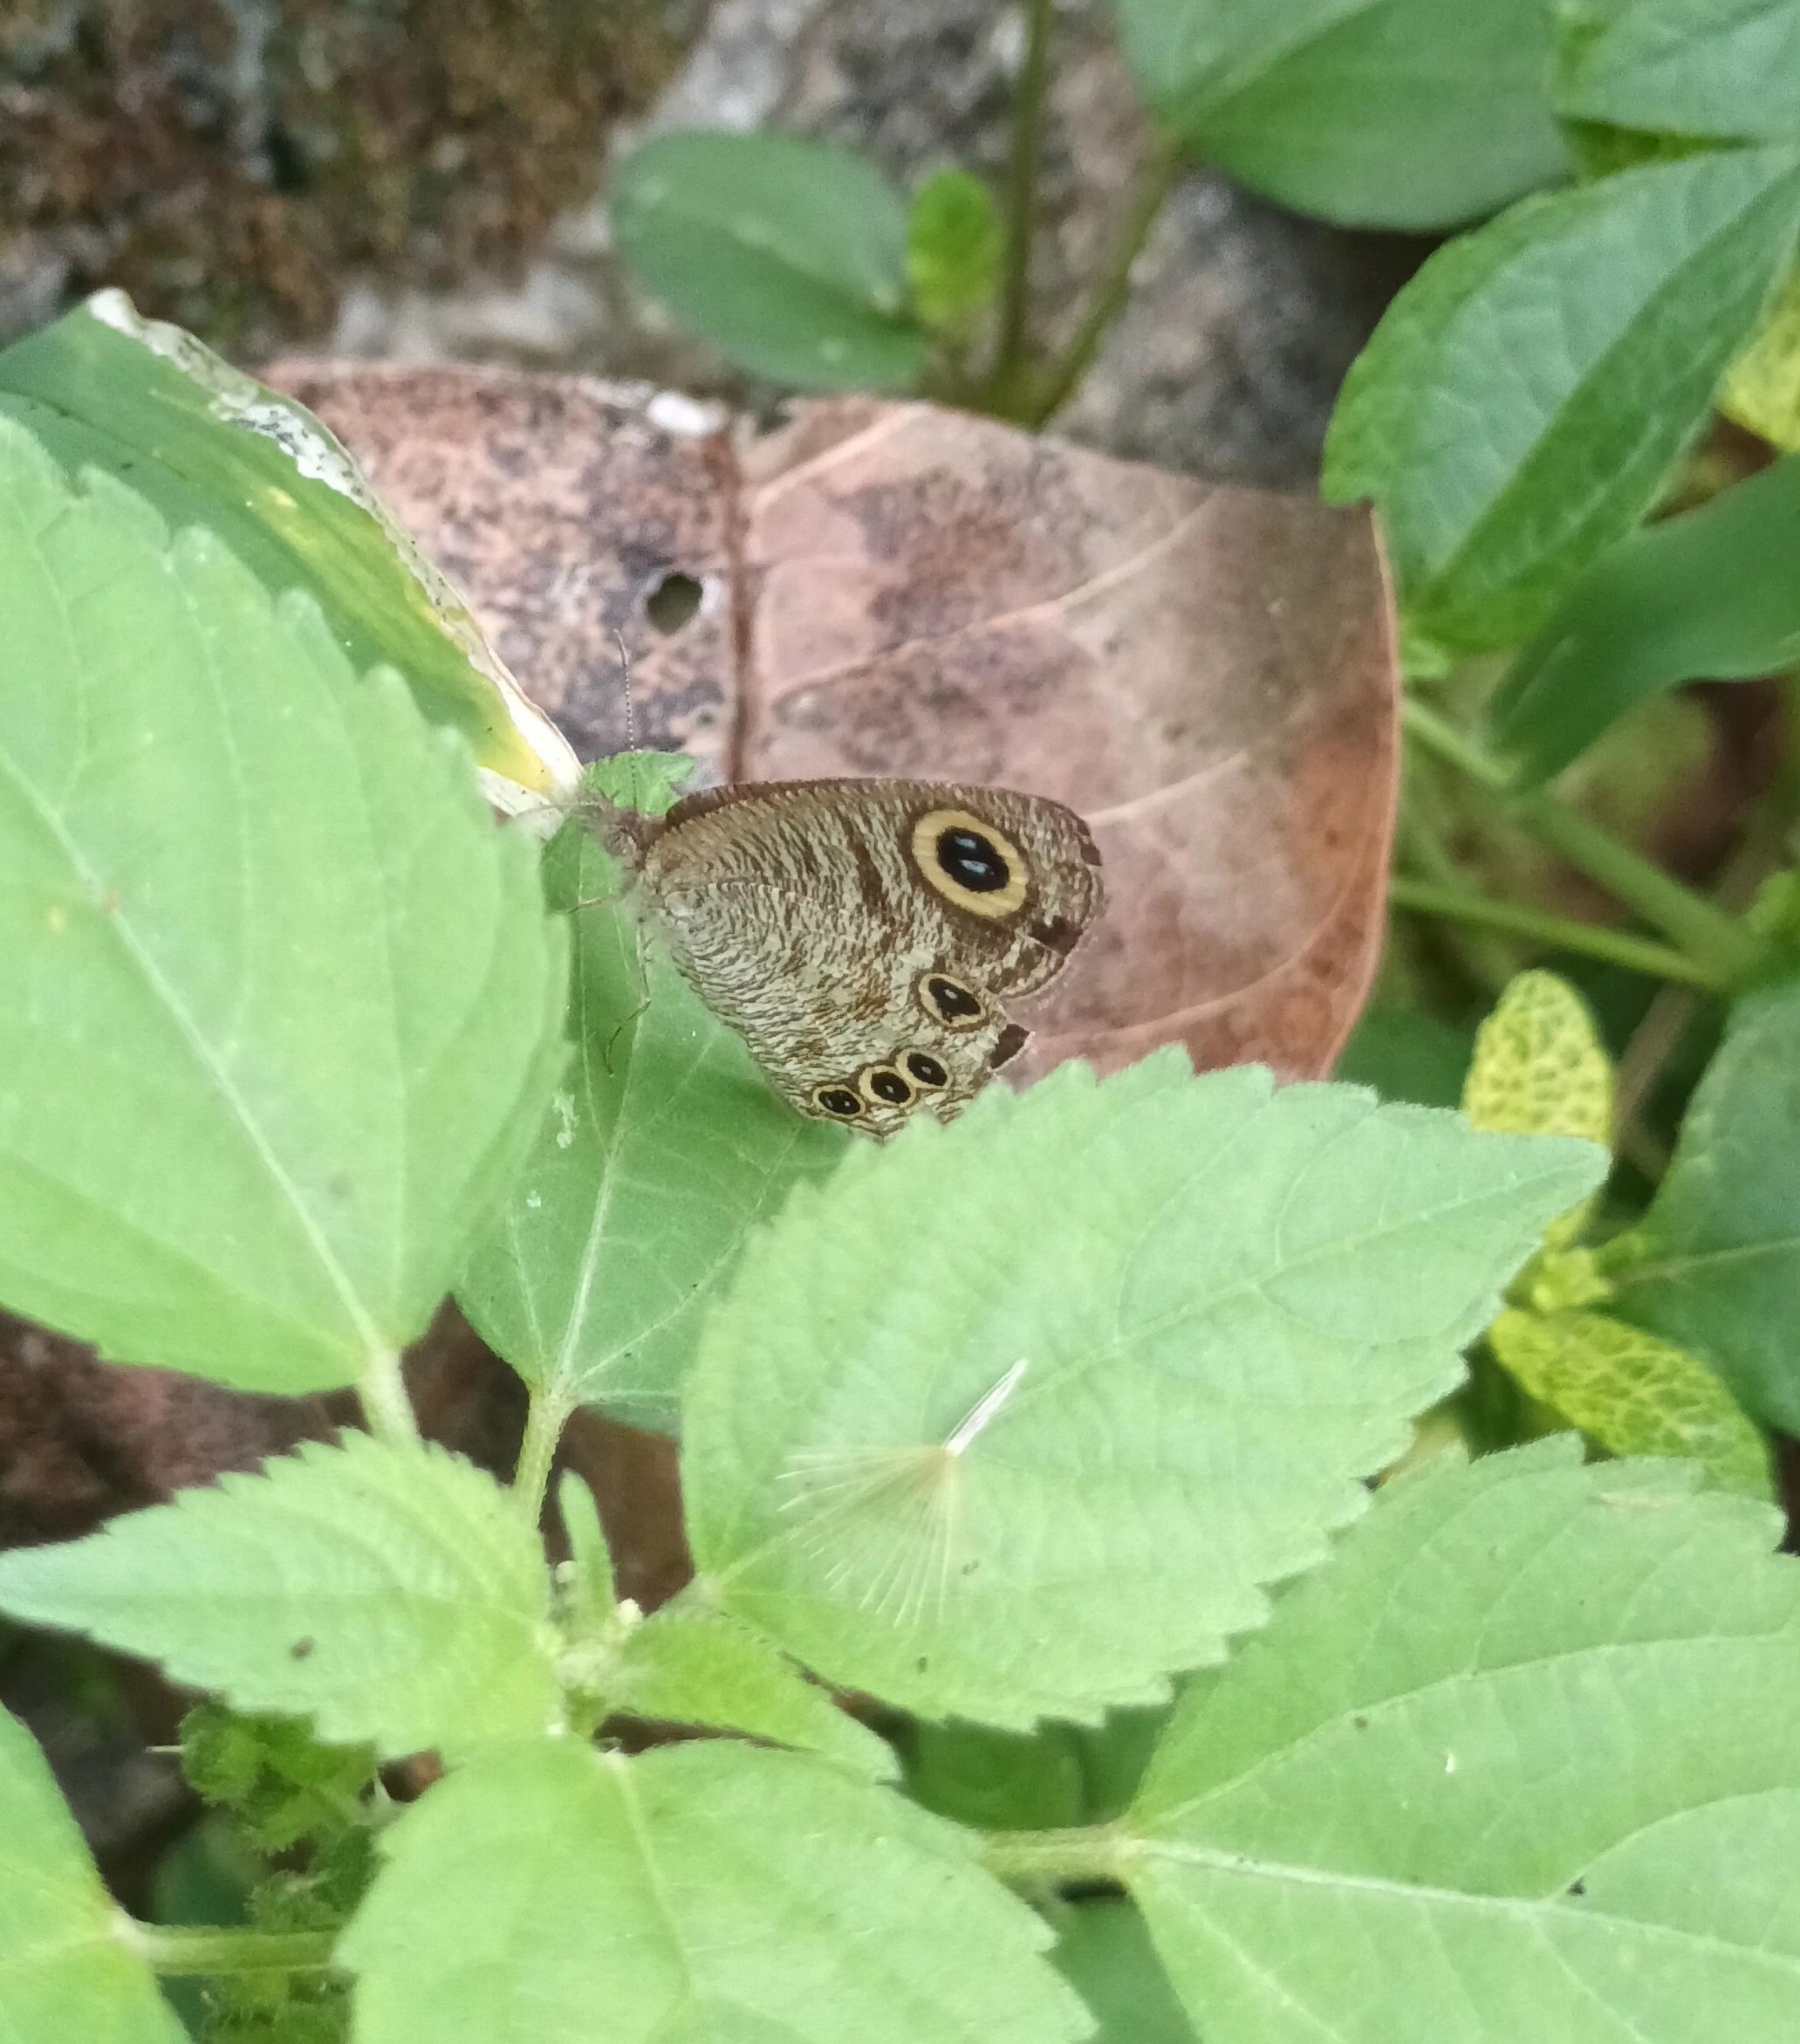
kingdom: Animalia
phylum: Arthropoda
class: Insecta
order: Lepidoptera
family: Nymphalidae
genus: Ypthima
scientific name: Ypthima huebneri
